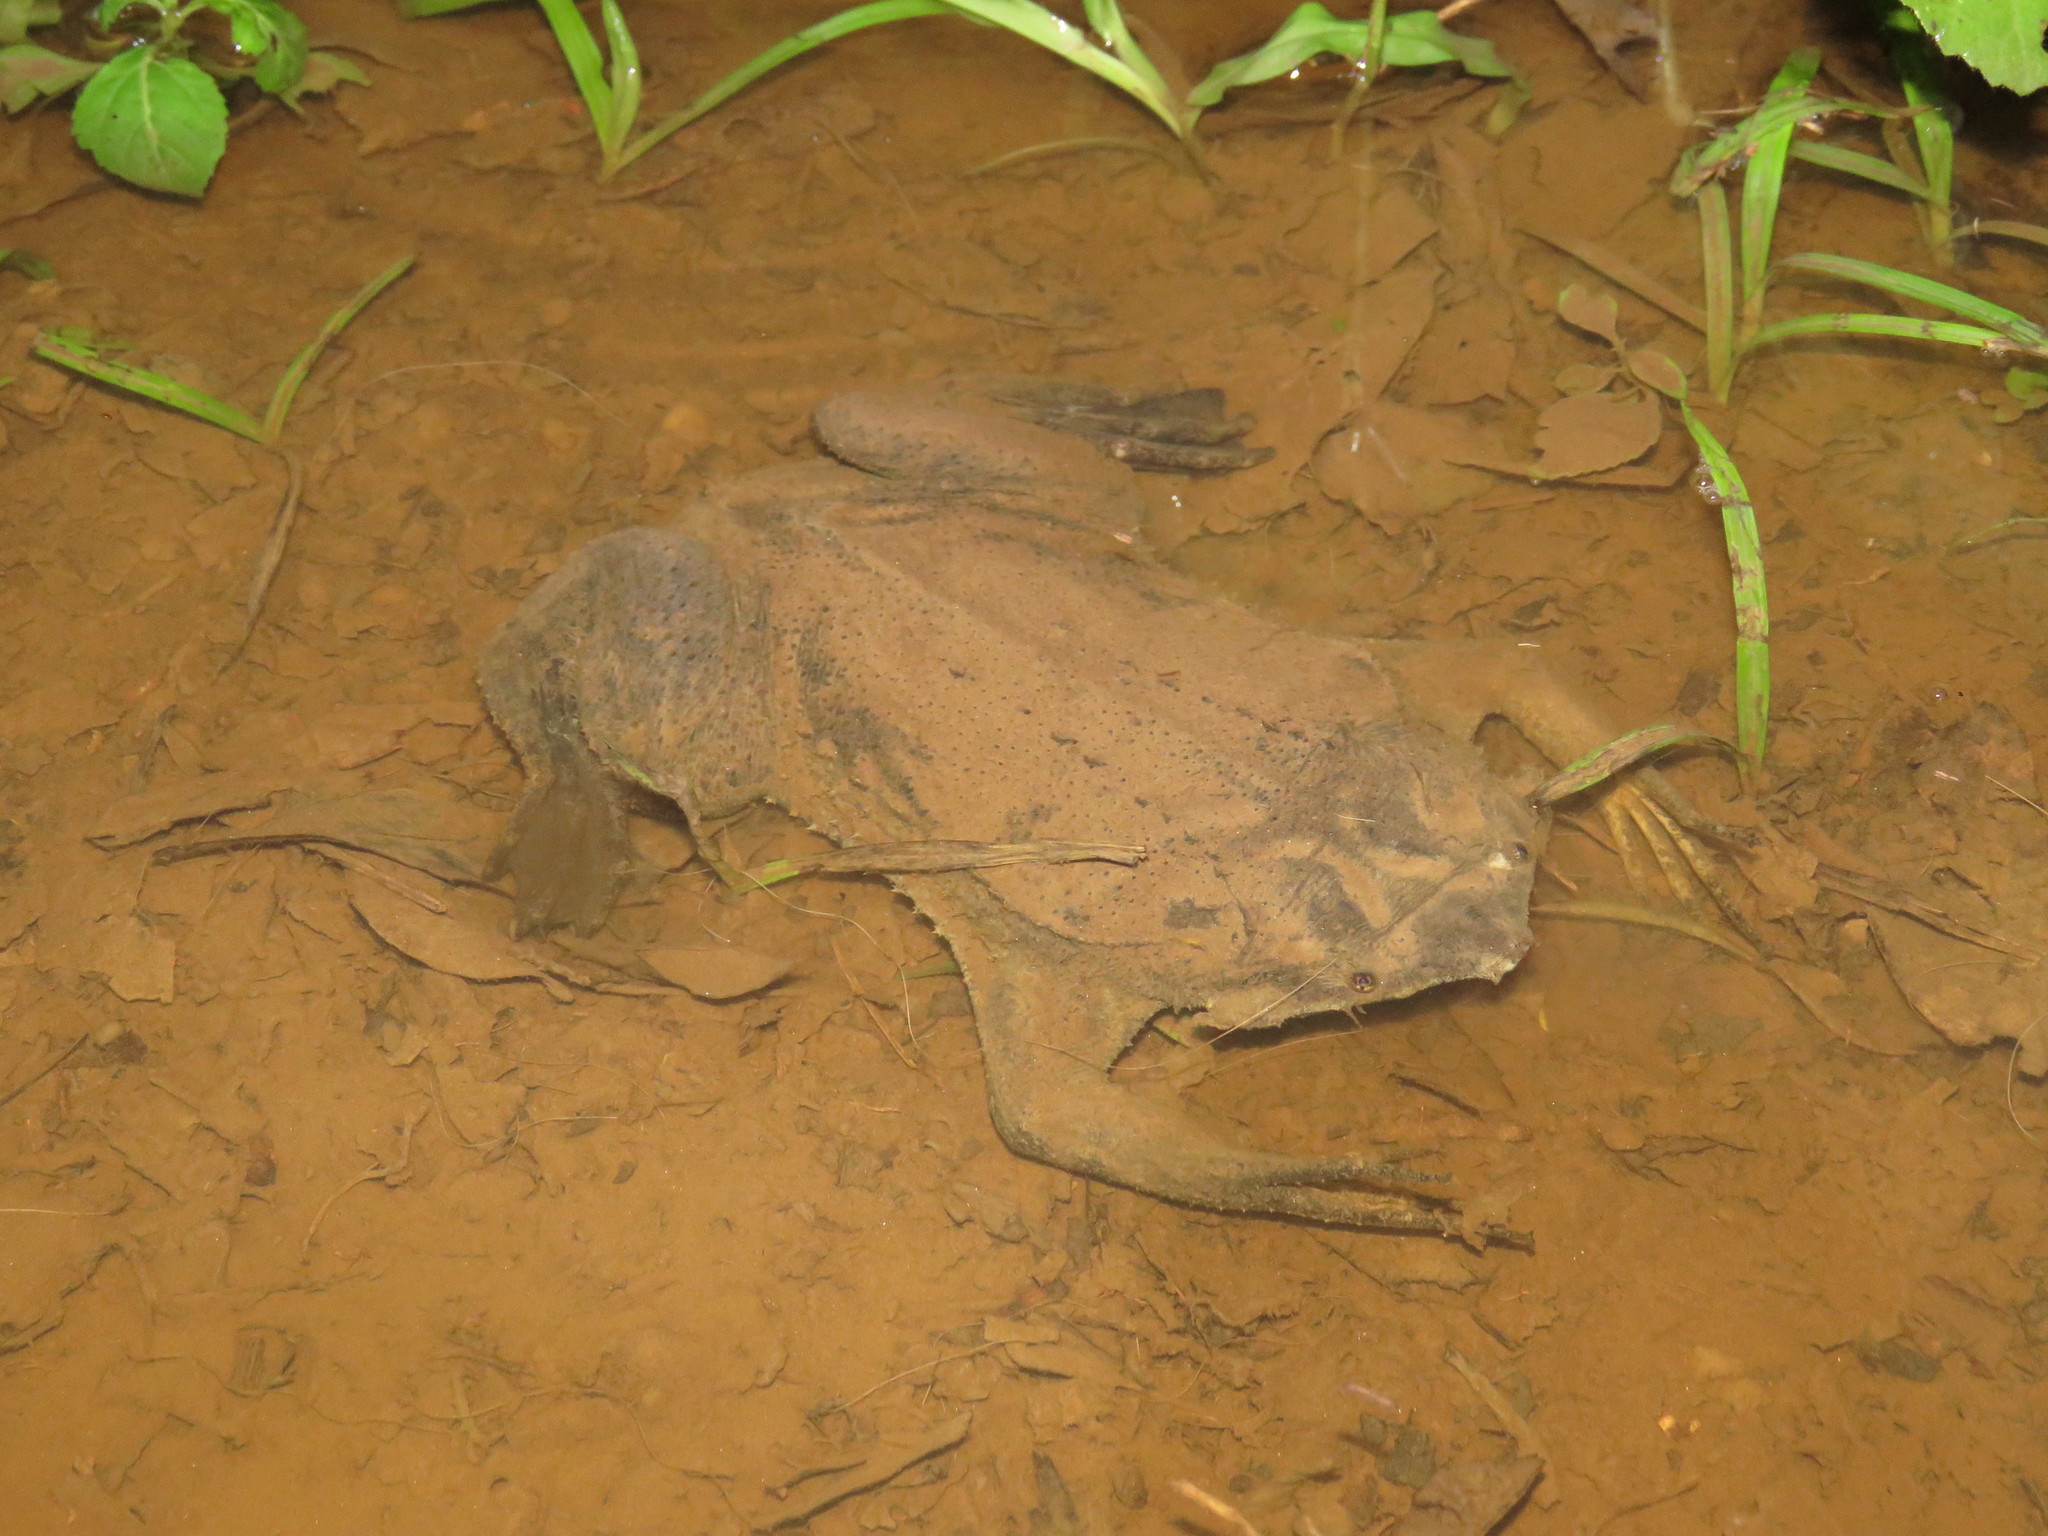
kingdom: Animalia
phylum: Chordata
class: Amphibia
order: Anura
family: Pipidae
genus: Pipa
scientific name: Pipa pipa
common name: Surinam toad
